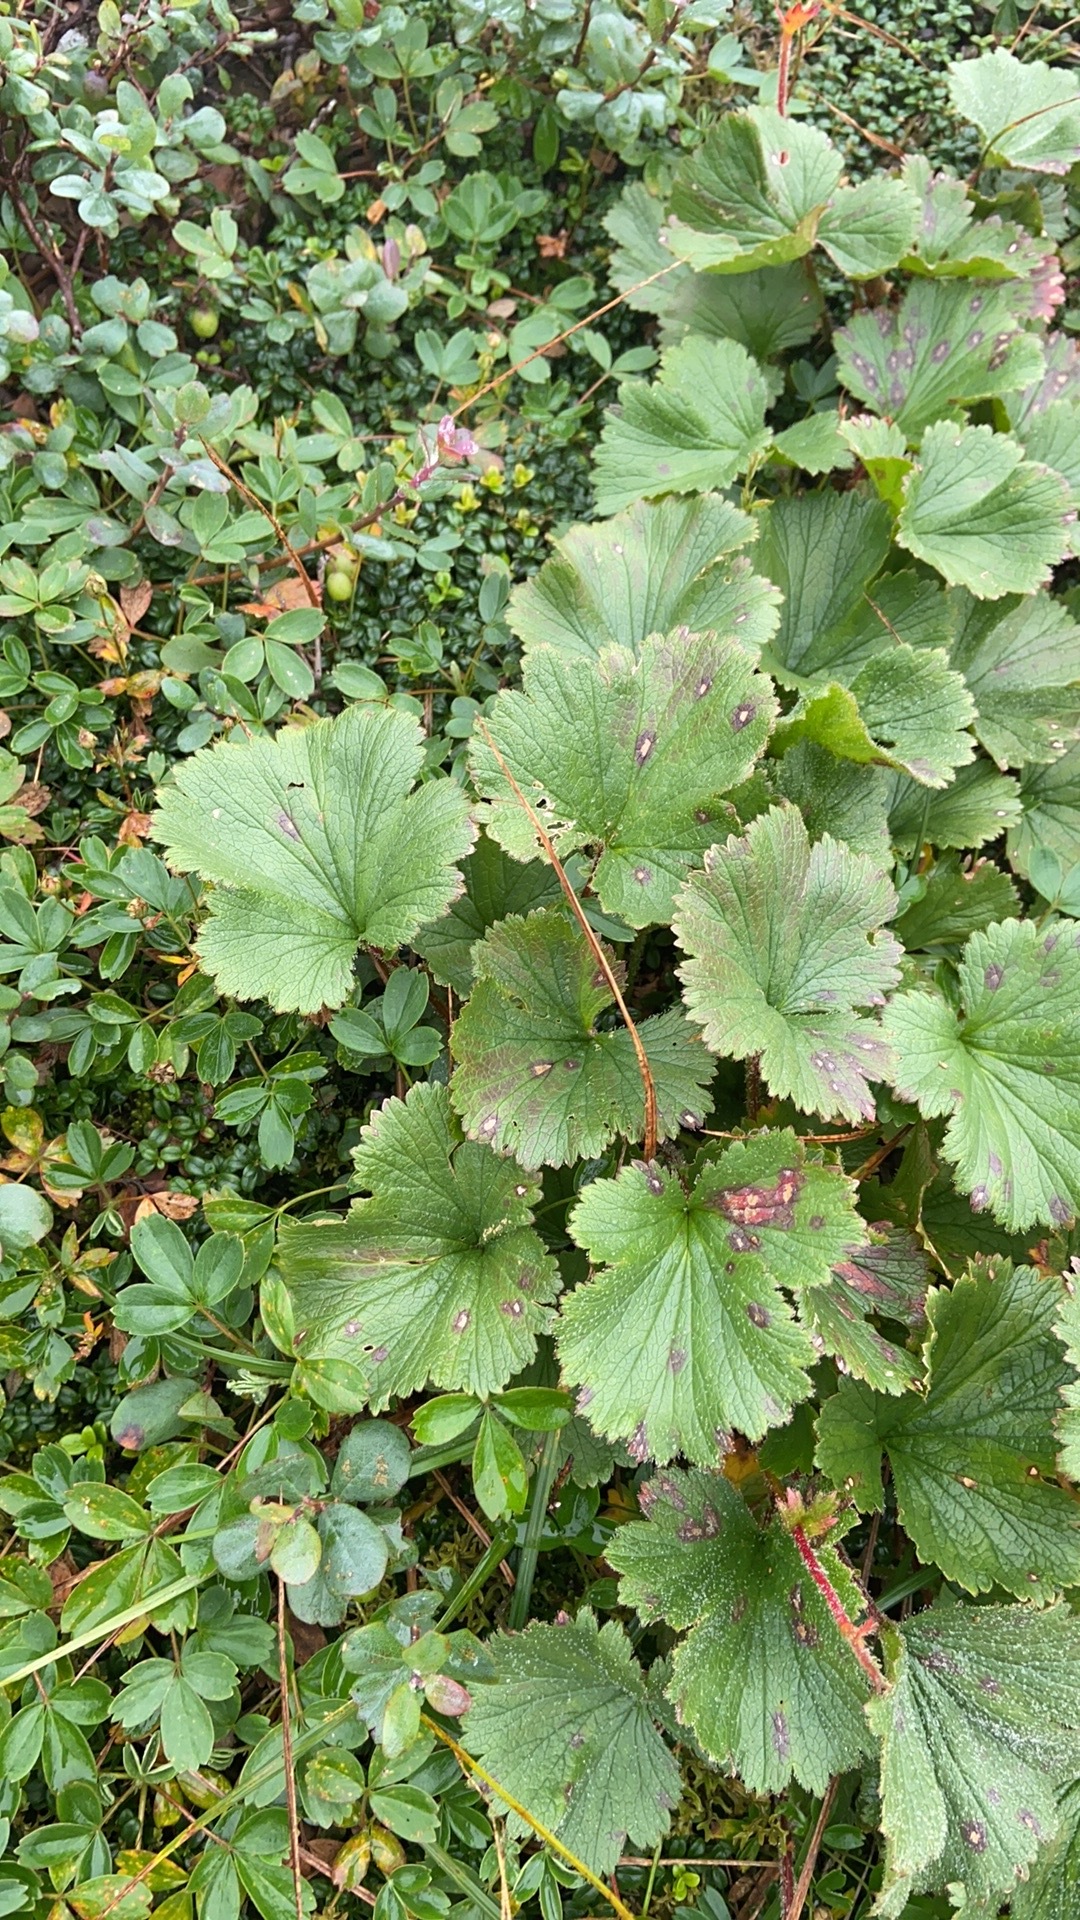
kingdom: Plantae
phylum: Tracheophyta
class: Magnoliopsida
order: Rosales
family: Rosaceae
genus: Geum
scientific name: Geum peckii
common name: Eastern mountain avens
